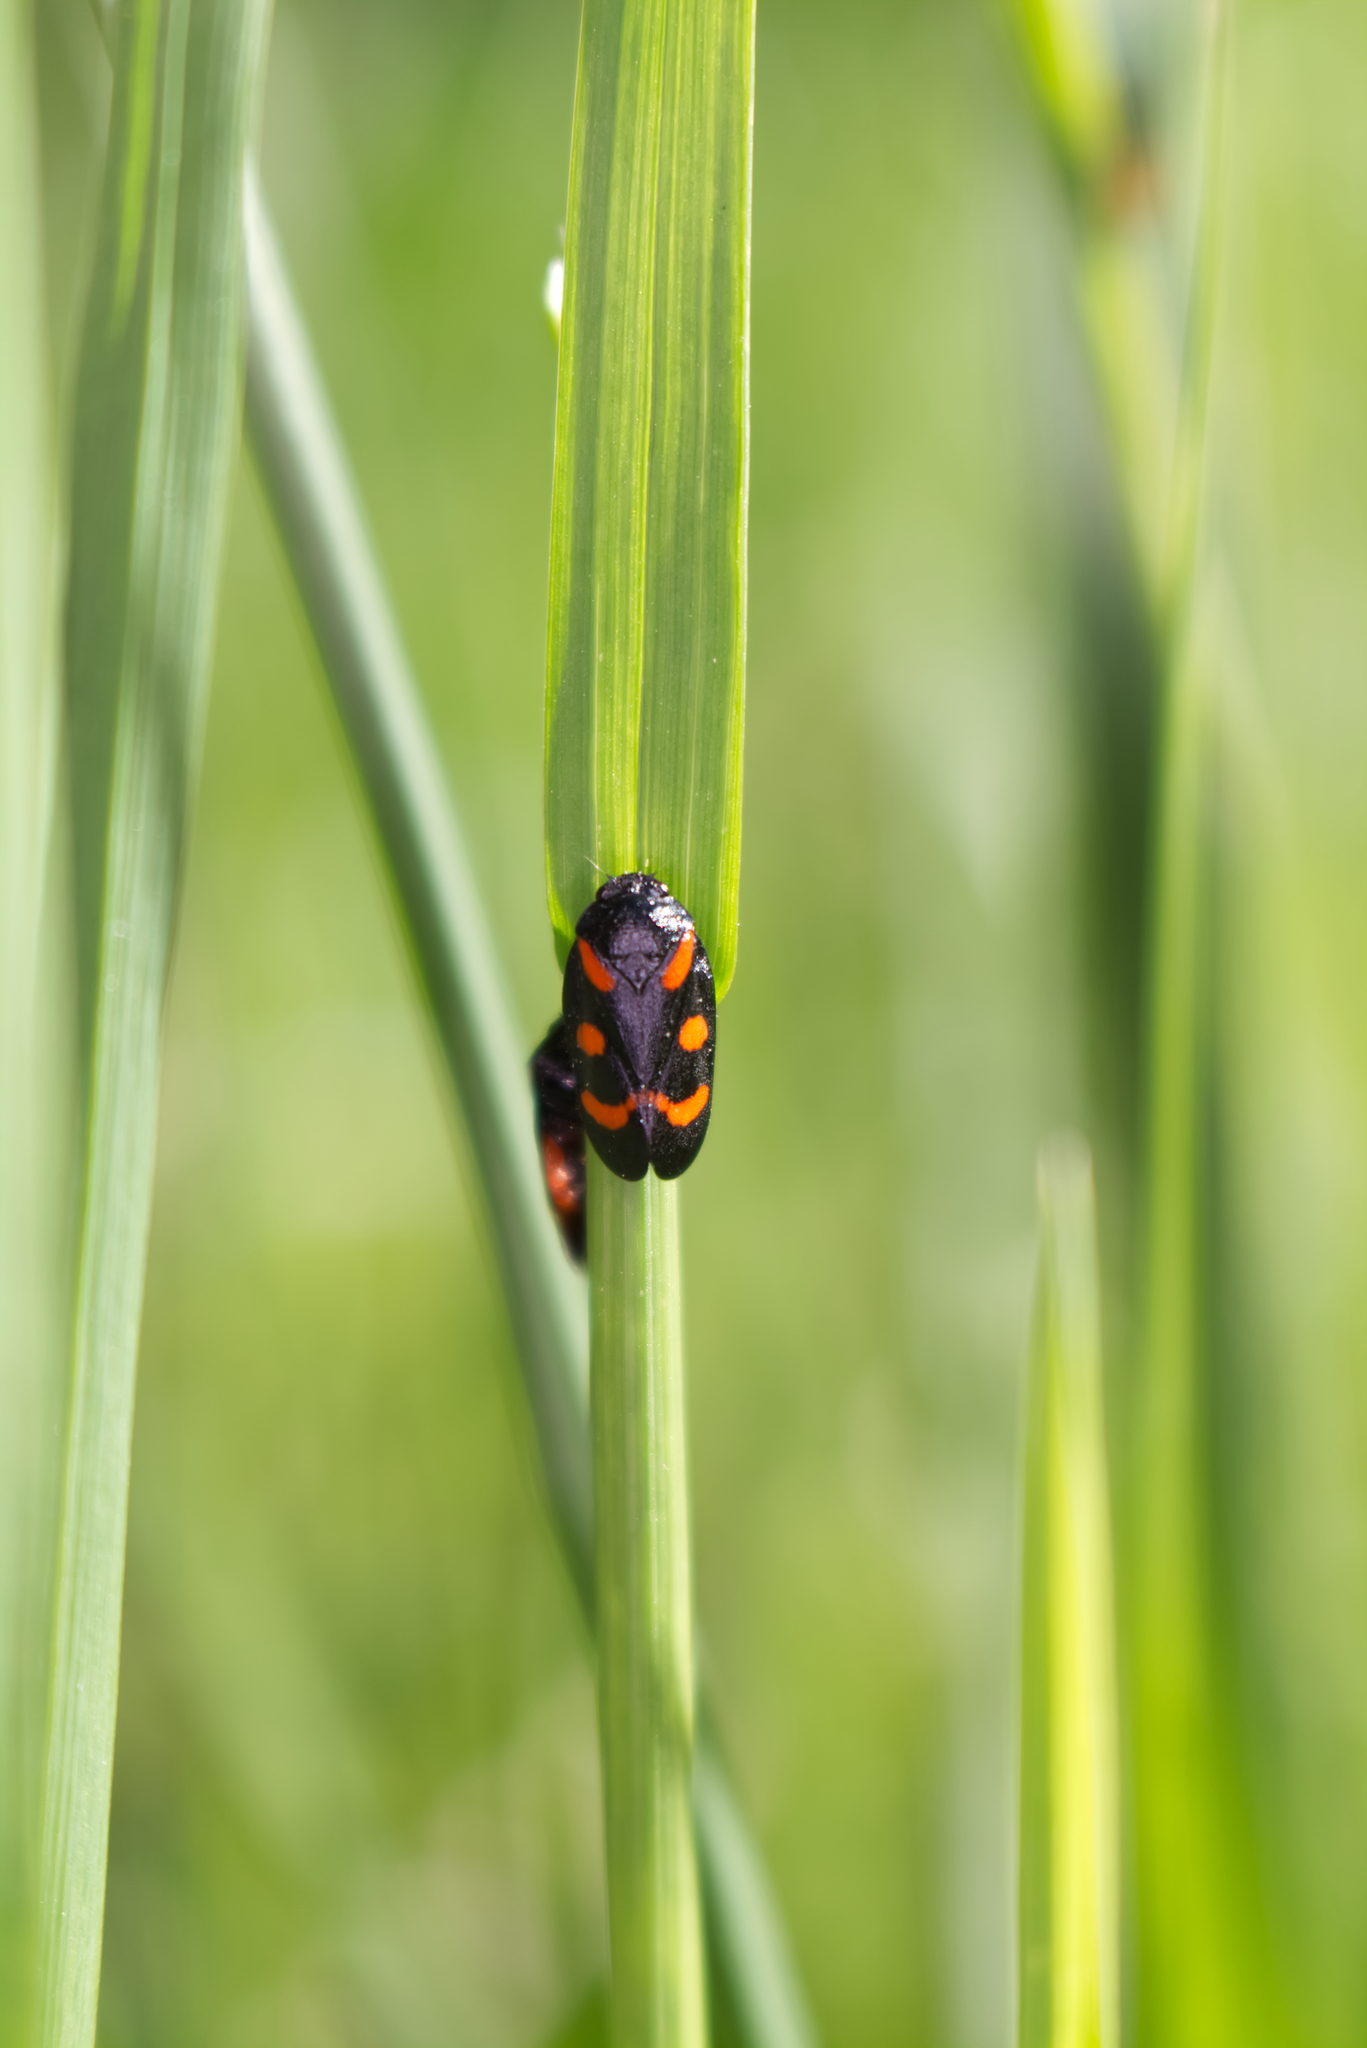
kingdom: Animalia
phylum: Arthropoda
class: Insecta
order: Hemiptera
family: Cercopidae
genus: Cercopis
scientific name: Cercopis arcuata
